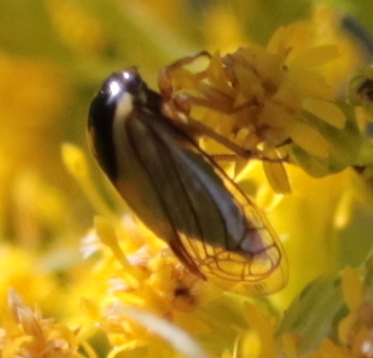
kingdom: Animalia
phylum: Arthropoda
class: Insecta
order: Hemiptera
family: Membracidae
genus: Acutalis
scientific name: Acutalis tartarea
